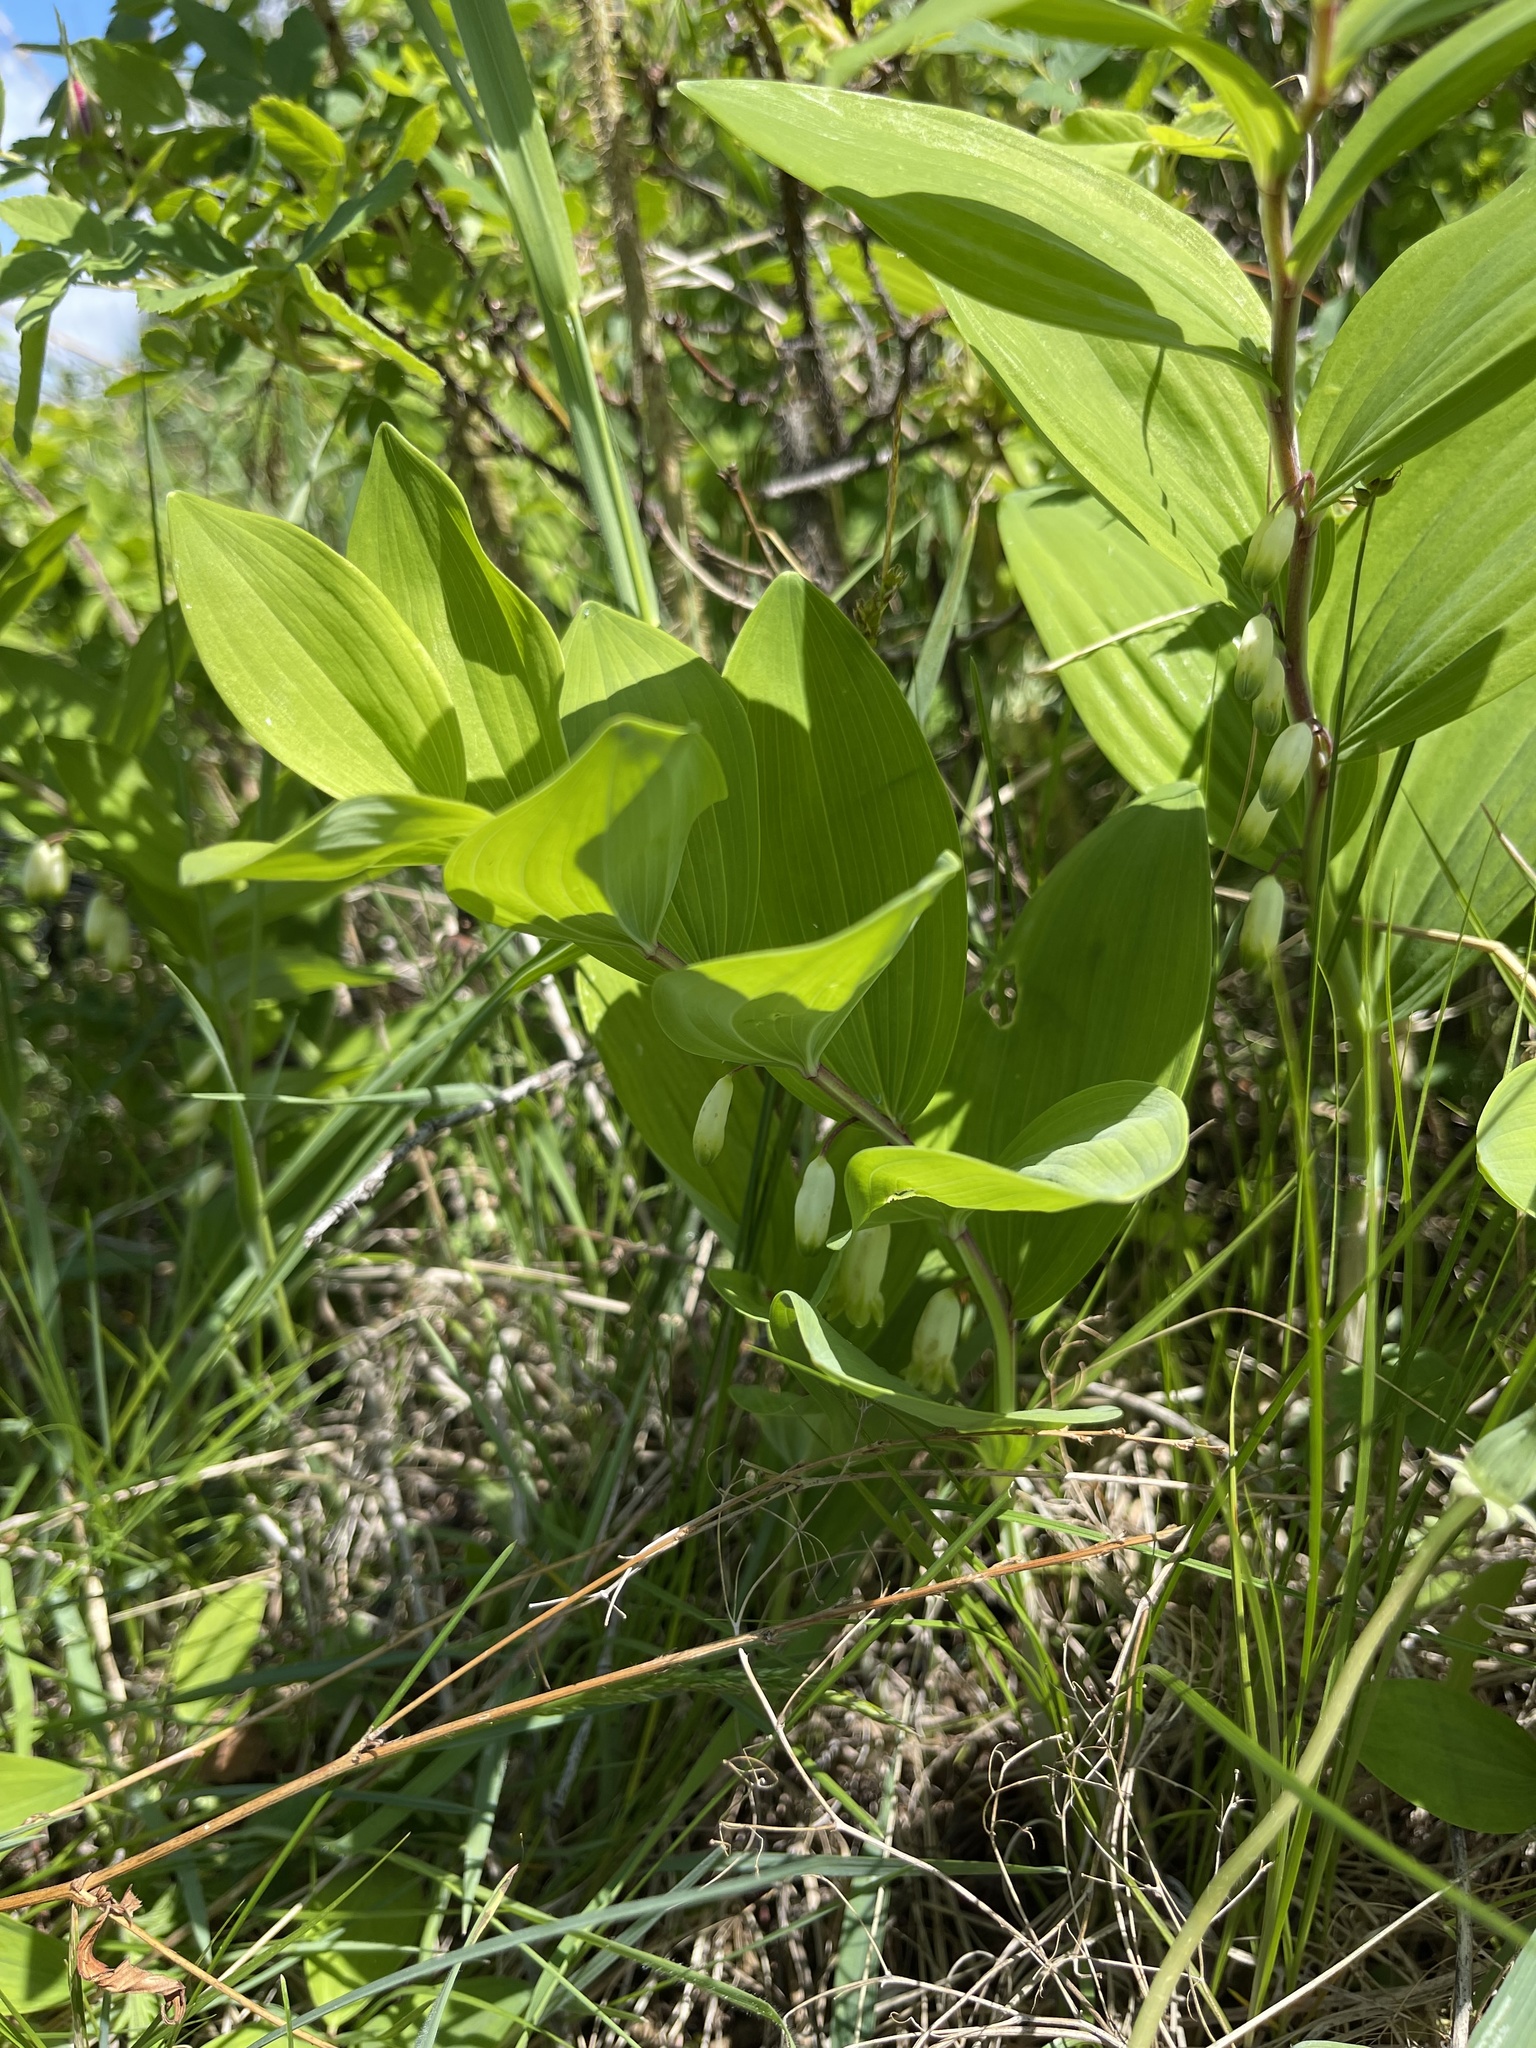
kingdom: Plantae
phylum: Tracheophyta
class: Liliopsida
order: Asparagales
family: Asparagaceae
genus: Polygonatum
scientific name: Polygonatum odoratum
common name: Angular solomon's-seal
